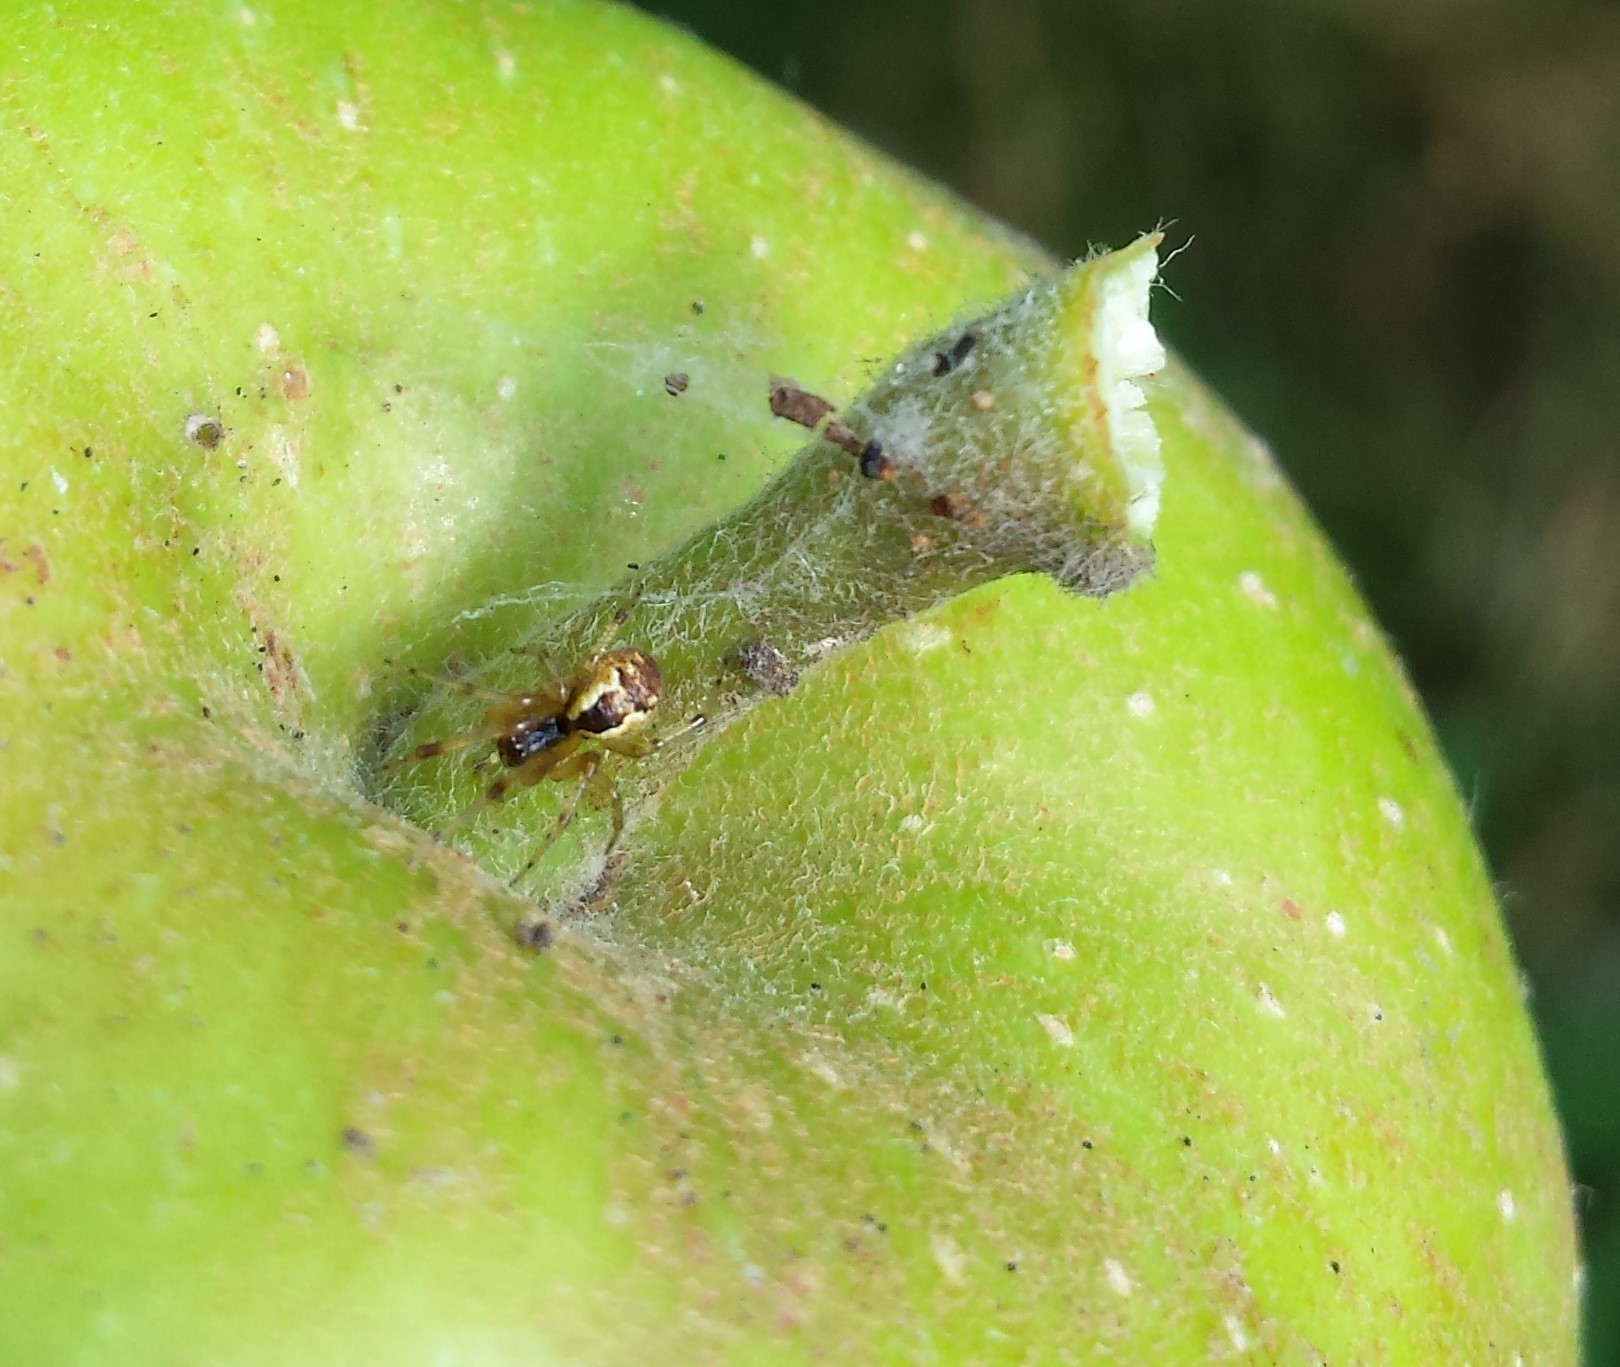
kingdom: Animalia
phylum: Arthropoda
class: Arachnida
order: Araneae
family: Theridiidae
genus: Anelosimus
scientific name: Anelosimus vittatus
